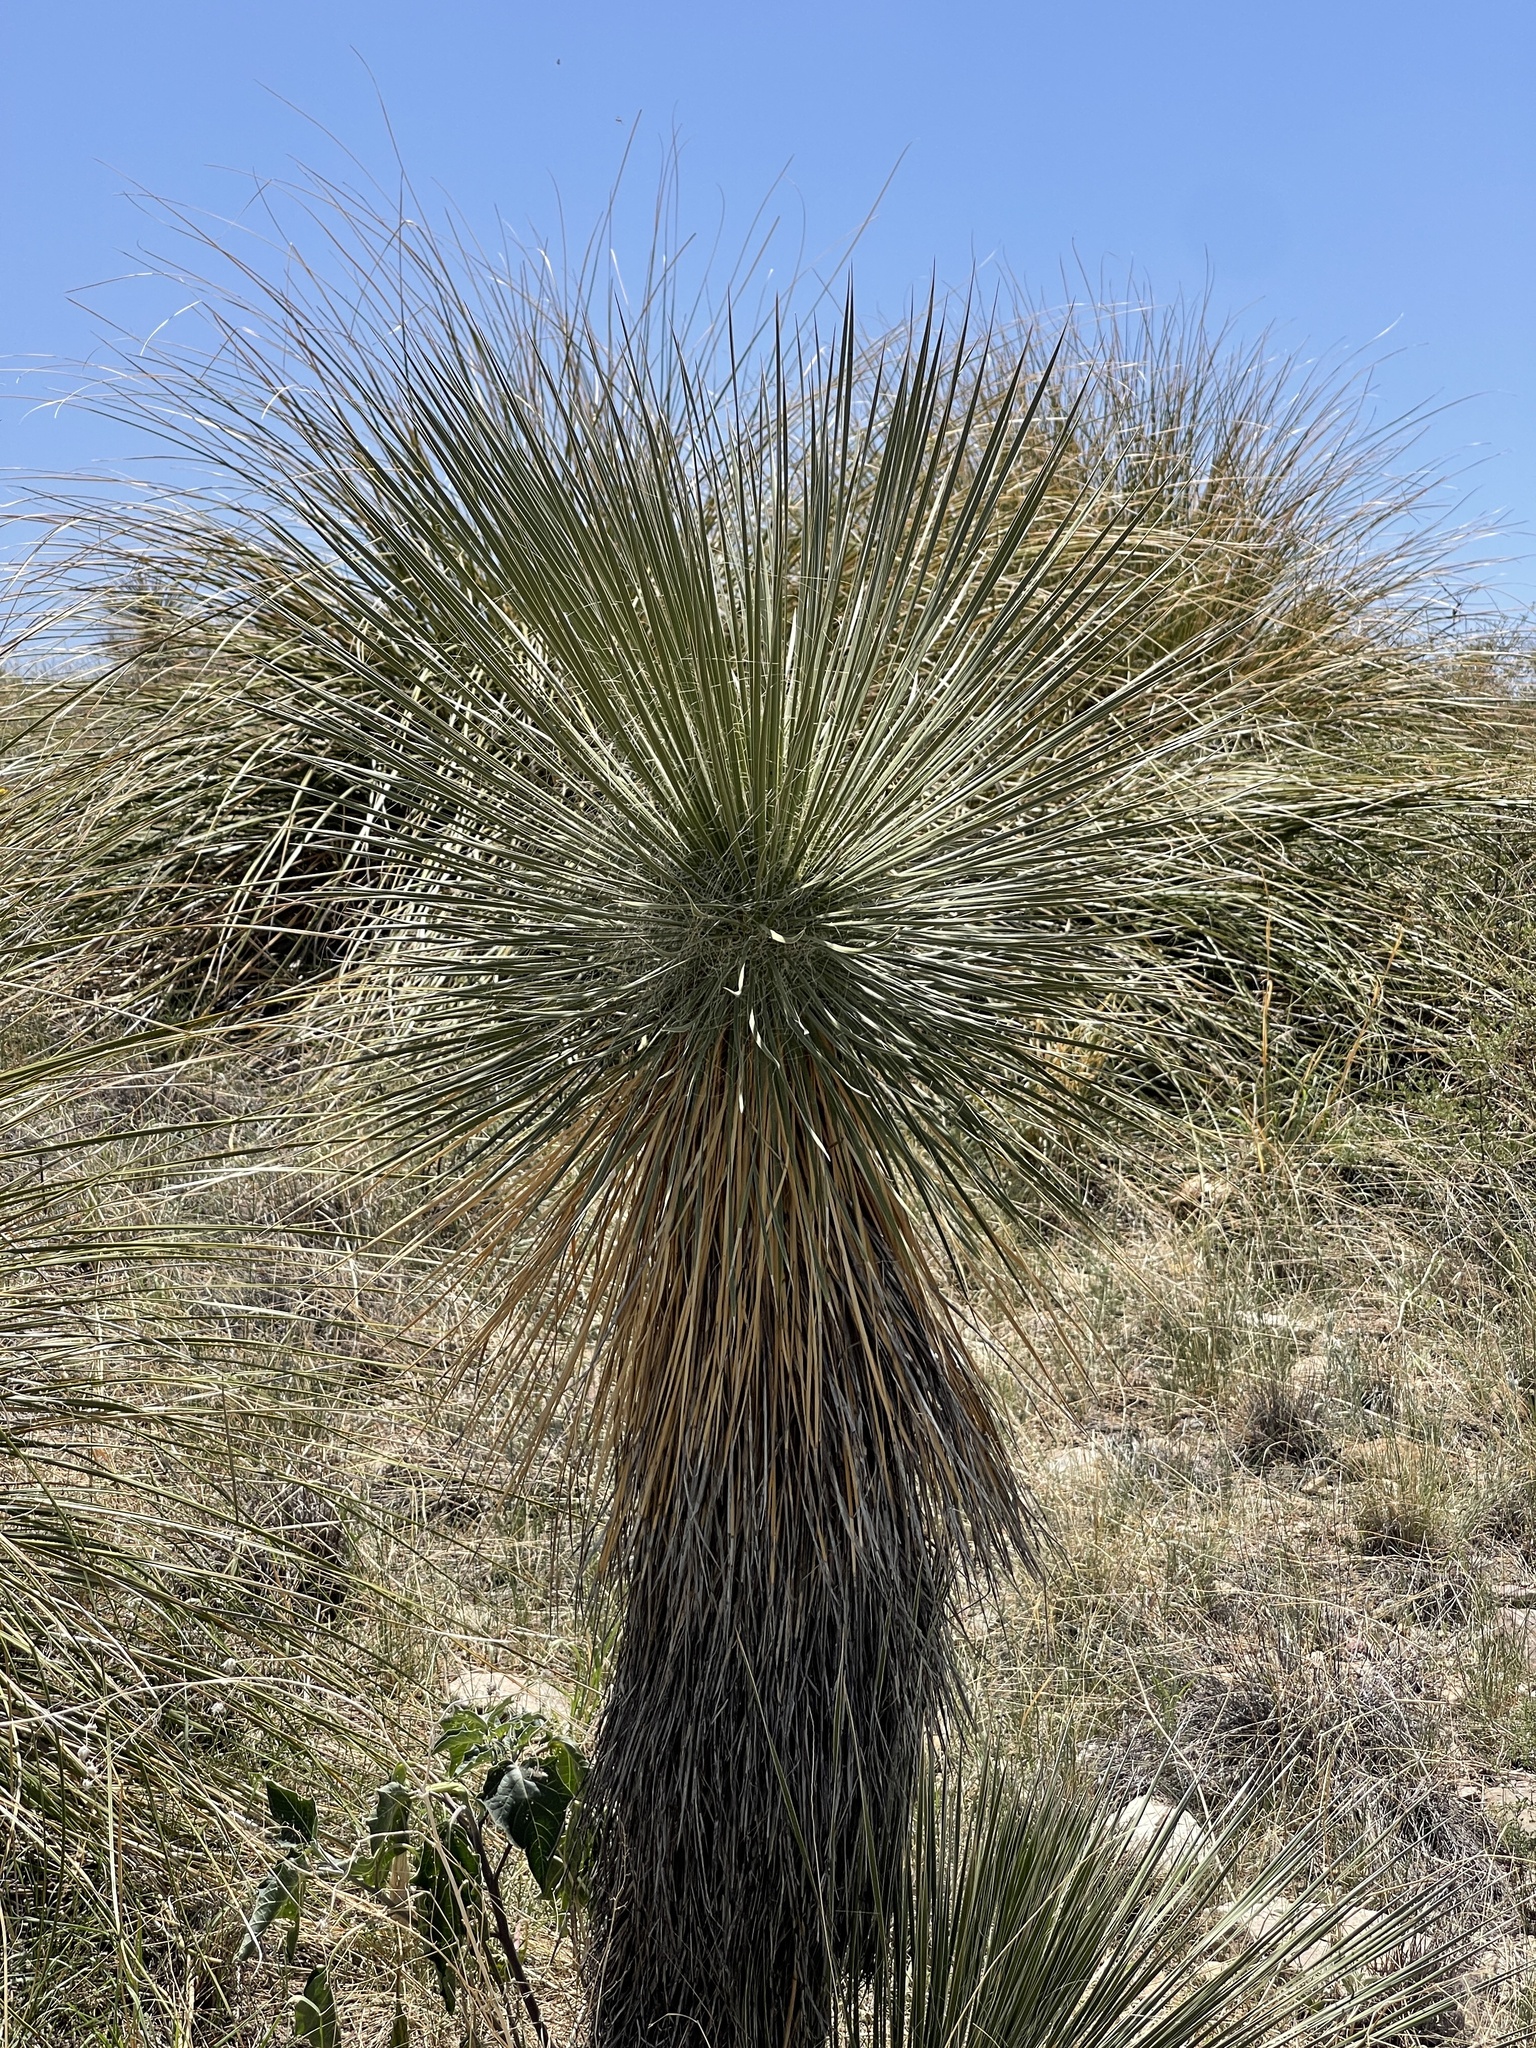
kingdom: Plantae
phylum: Tracheophyta
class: Liliopsida
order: Asparagales
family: Asparagaceae
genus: Yucca
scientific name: Yucca elata
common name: Palmella
